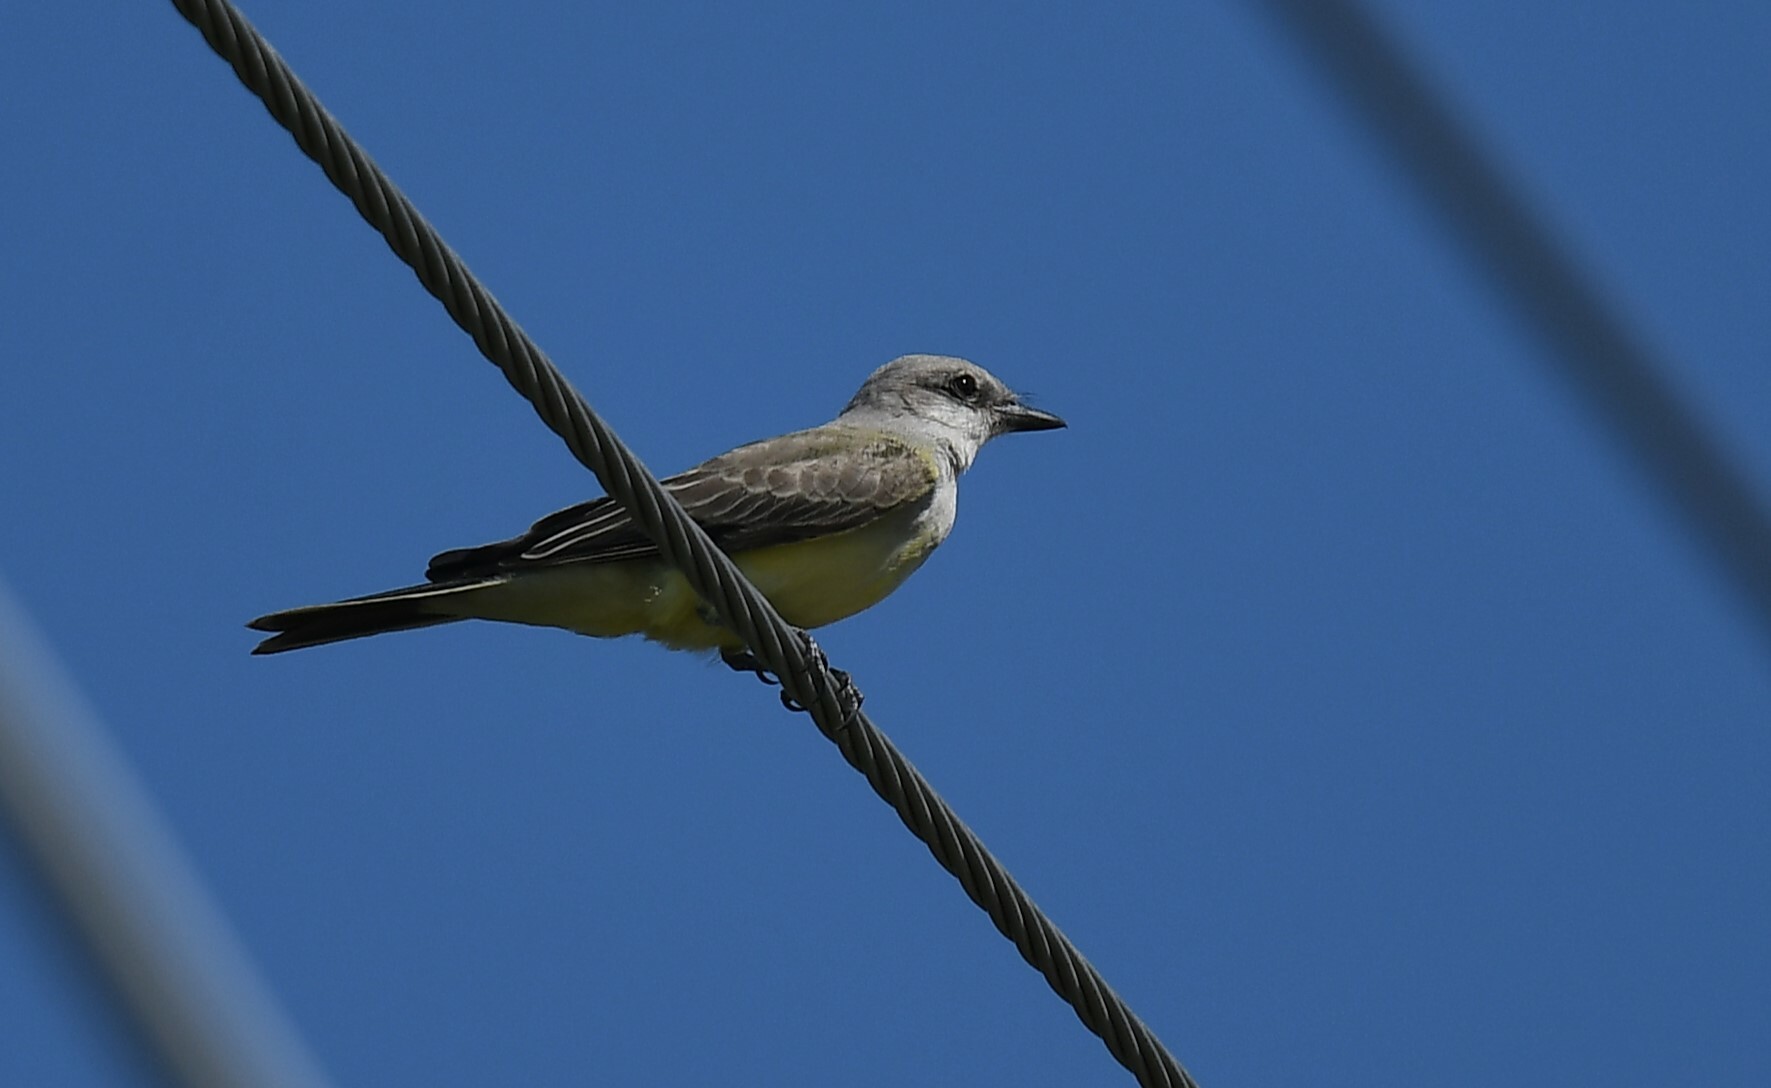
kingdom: Animalia
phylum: Chordata
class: Aves
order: Passeriformes
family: Tyrannidae
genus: Tyrannus
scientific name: Tyrannus verticalis
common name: Western kingbird
